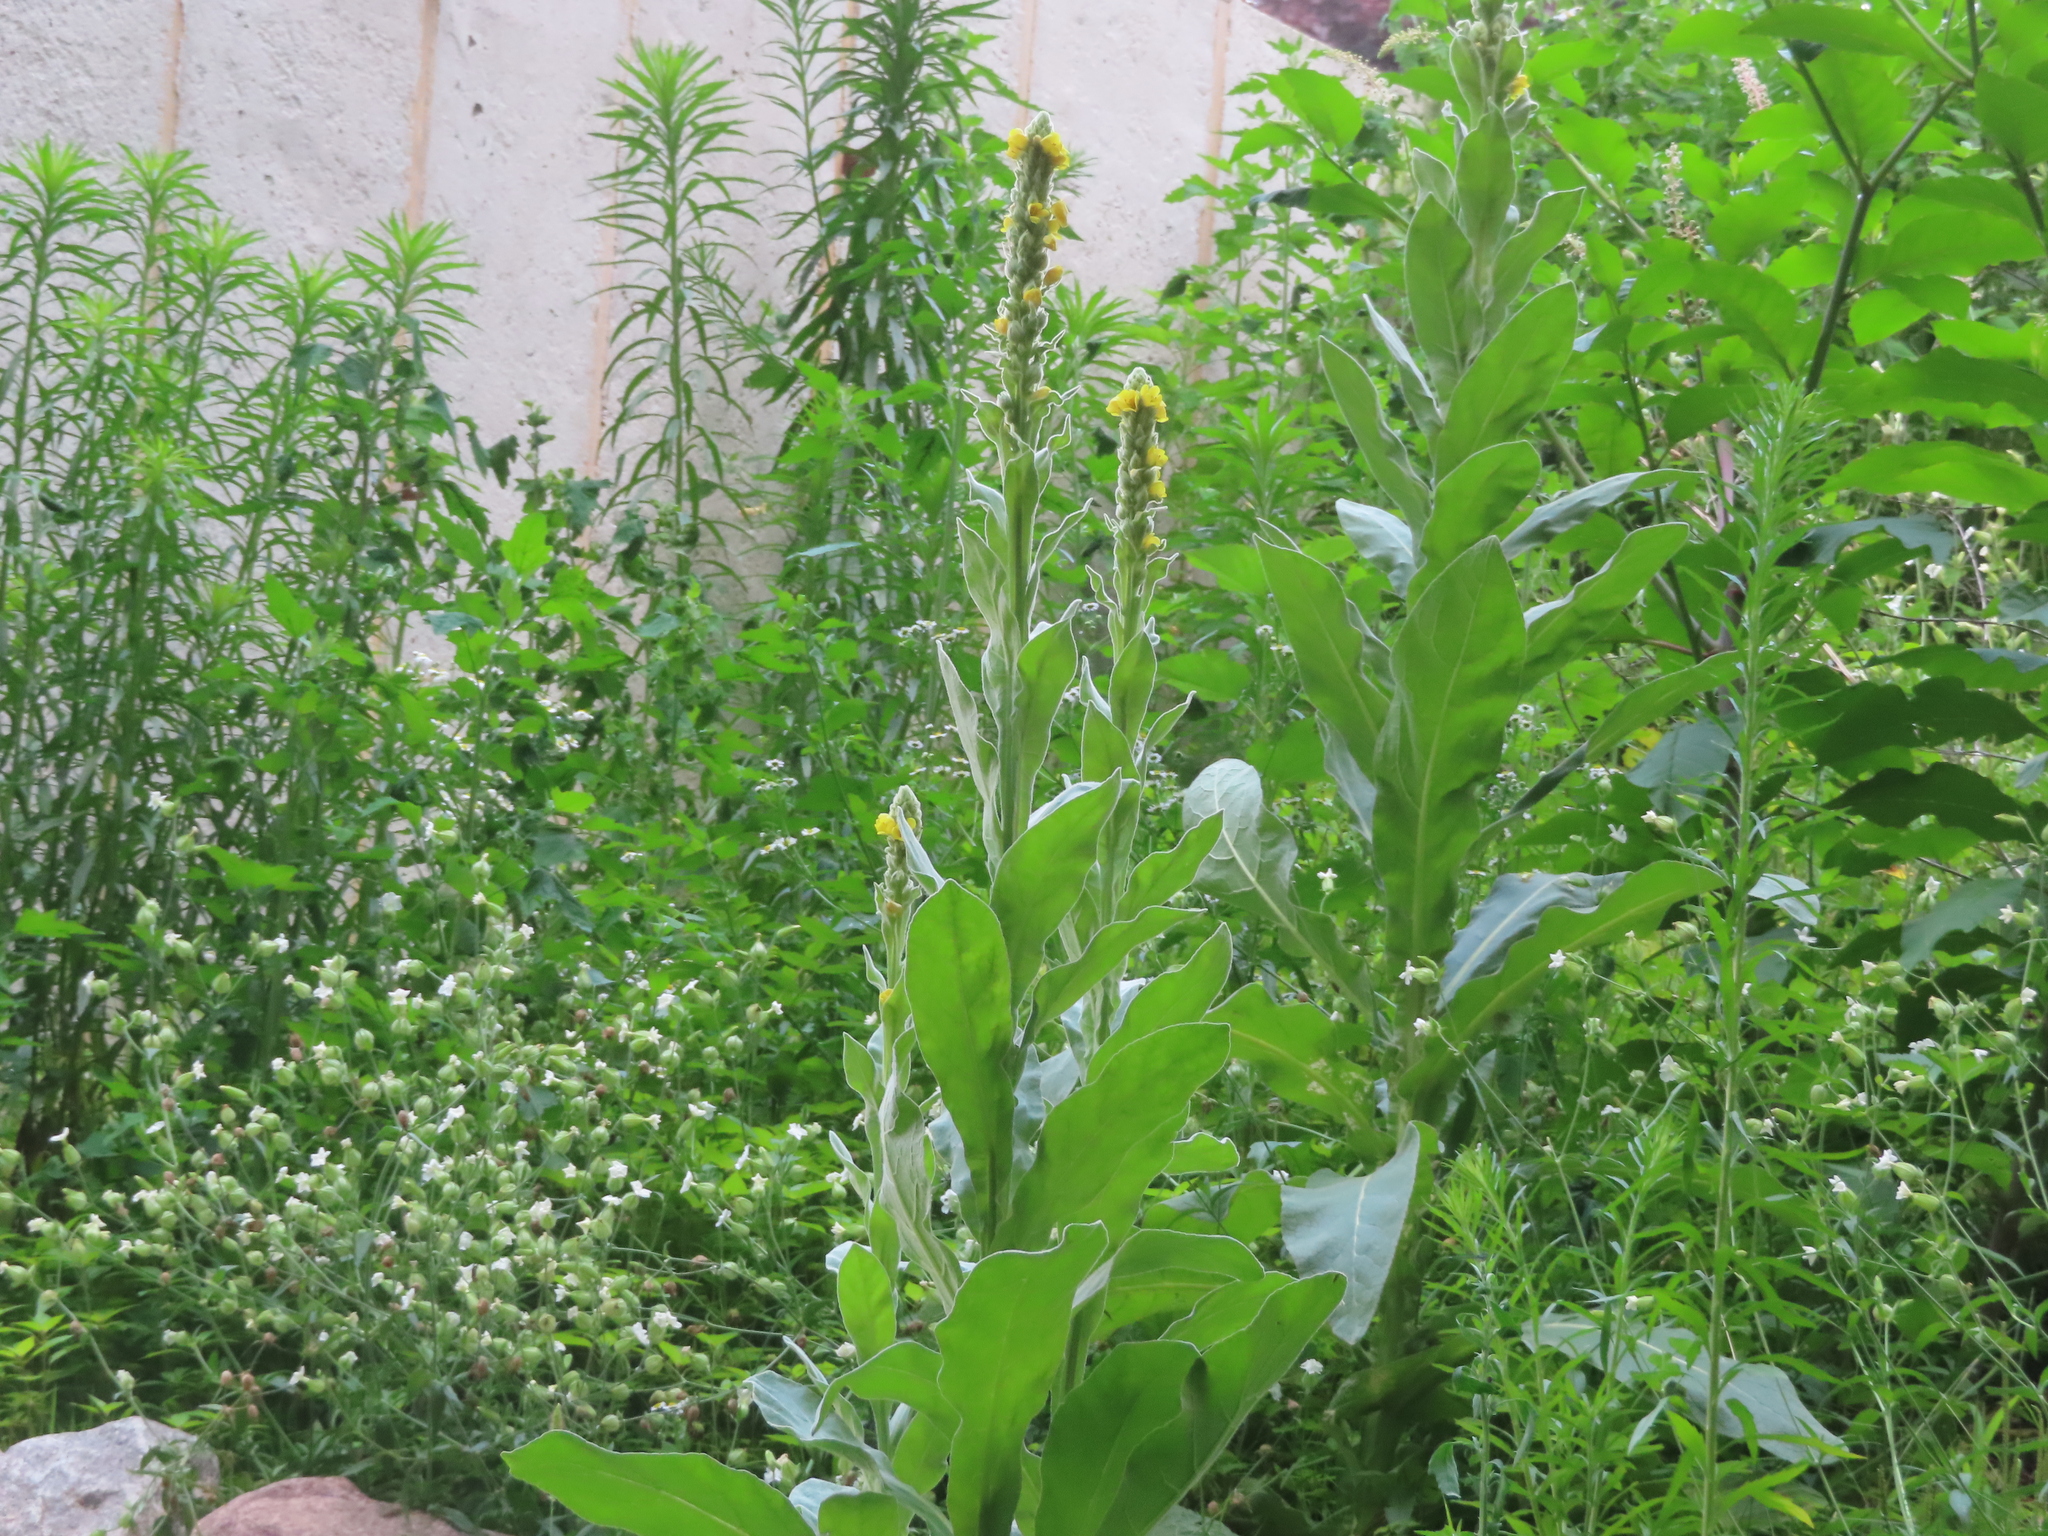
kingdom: Plantae
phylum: Tracheophyta
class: Magnoliopsida
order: Lamiales
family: Scrophulariaceae
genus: Verbascum
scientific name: Verbascum thapsus
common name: Common mullein
